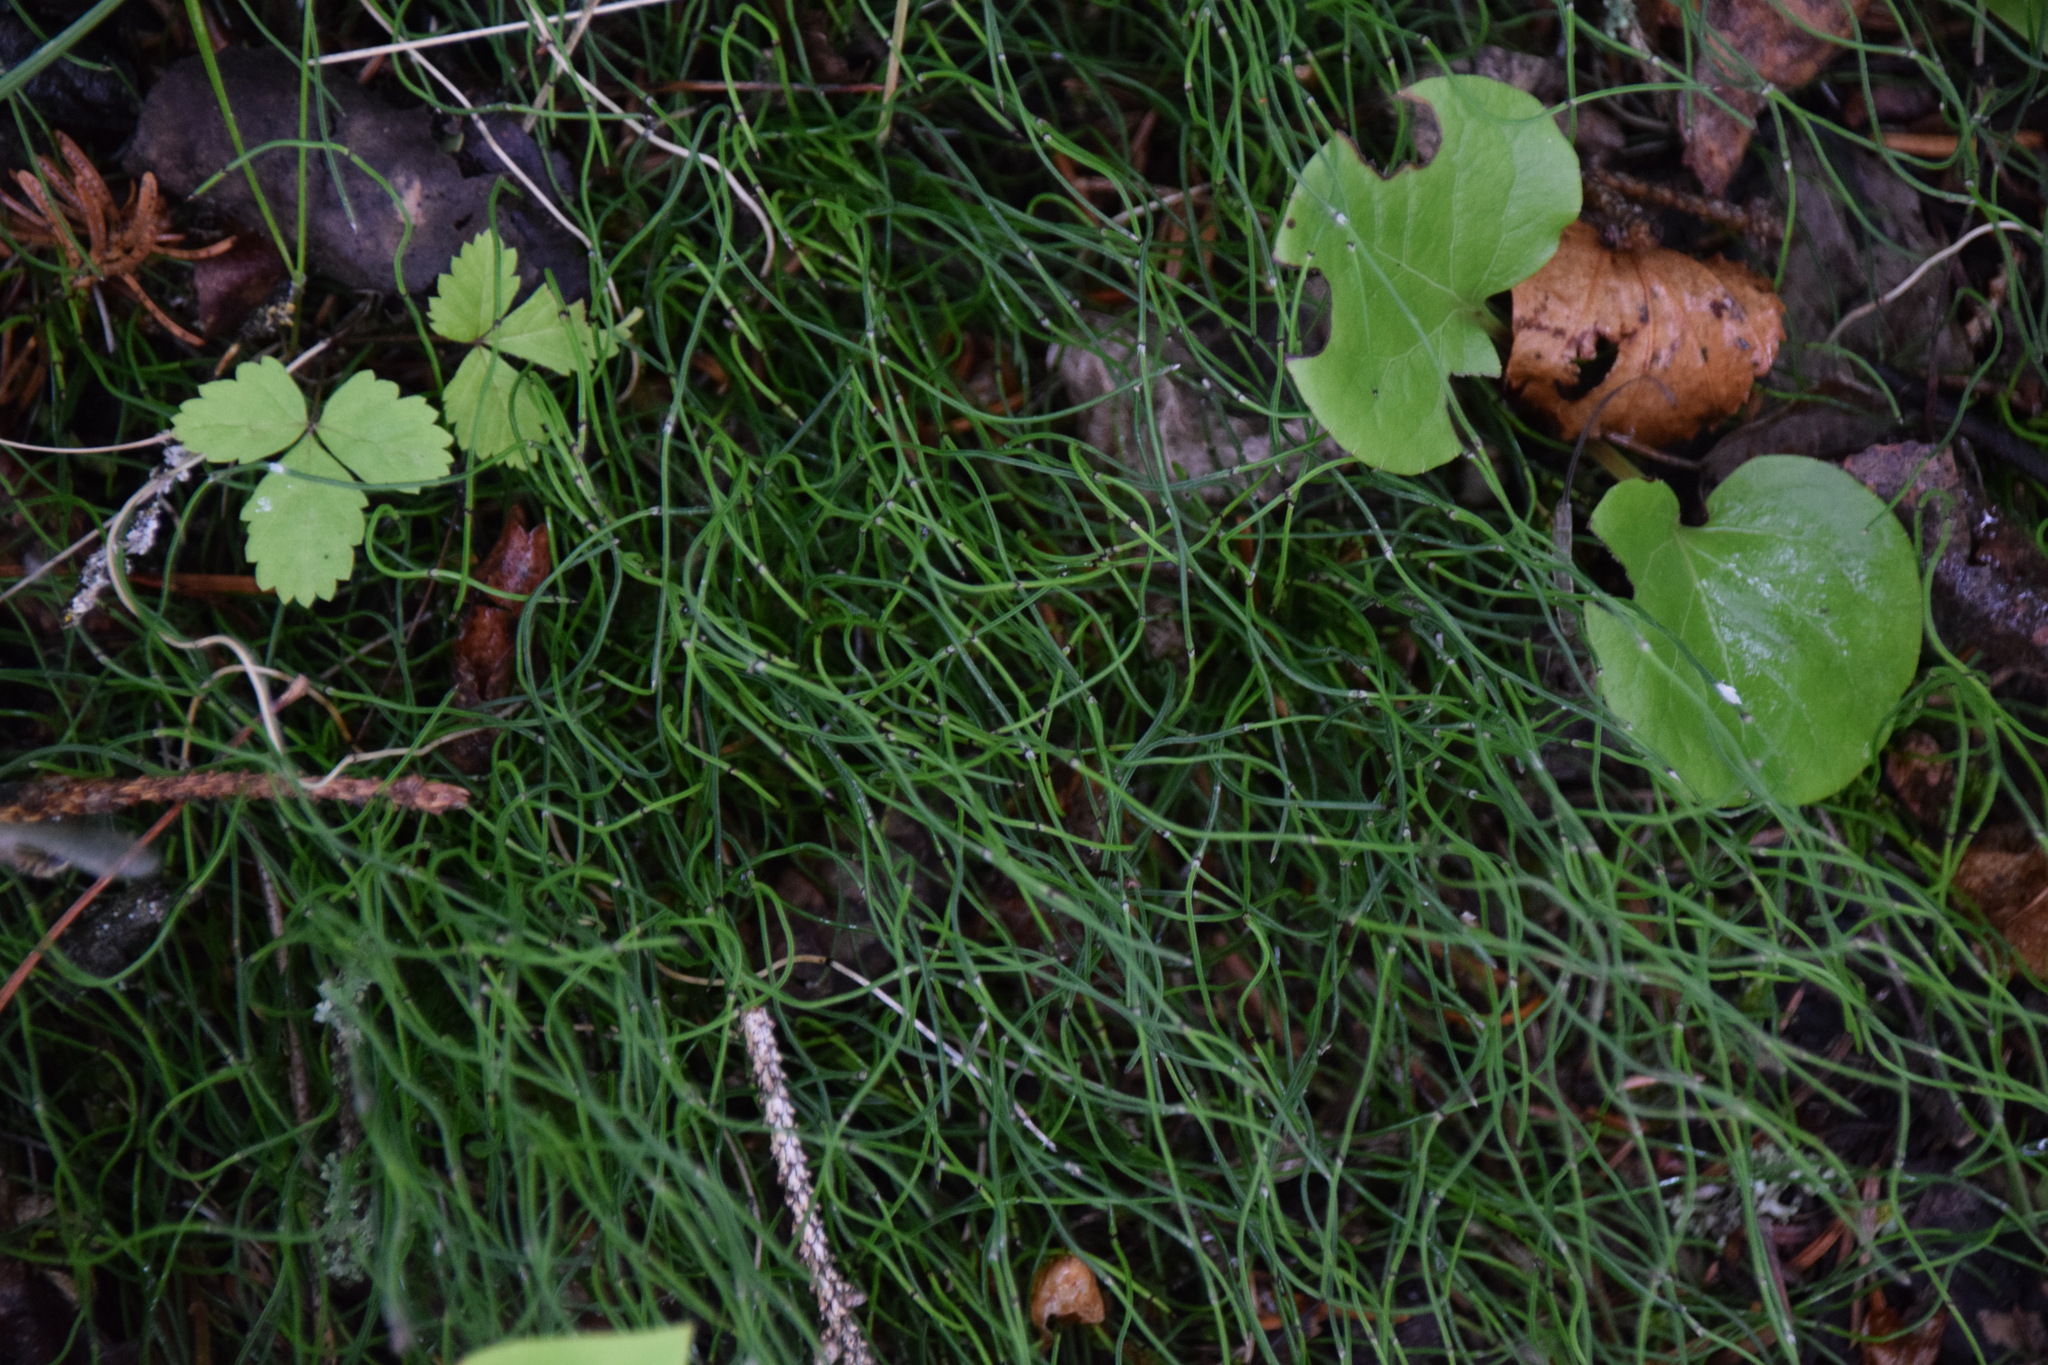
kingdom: Plantae
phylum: Tracheophyta
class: Polypodiopsida
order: Equisetales
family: Equisetaceae
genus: Equisetum
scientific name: Equisetum scirpoides
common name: Delicate horsetail
